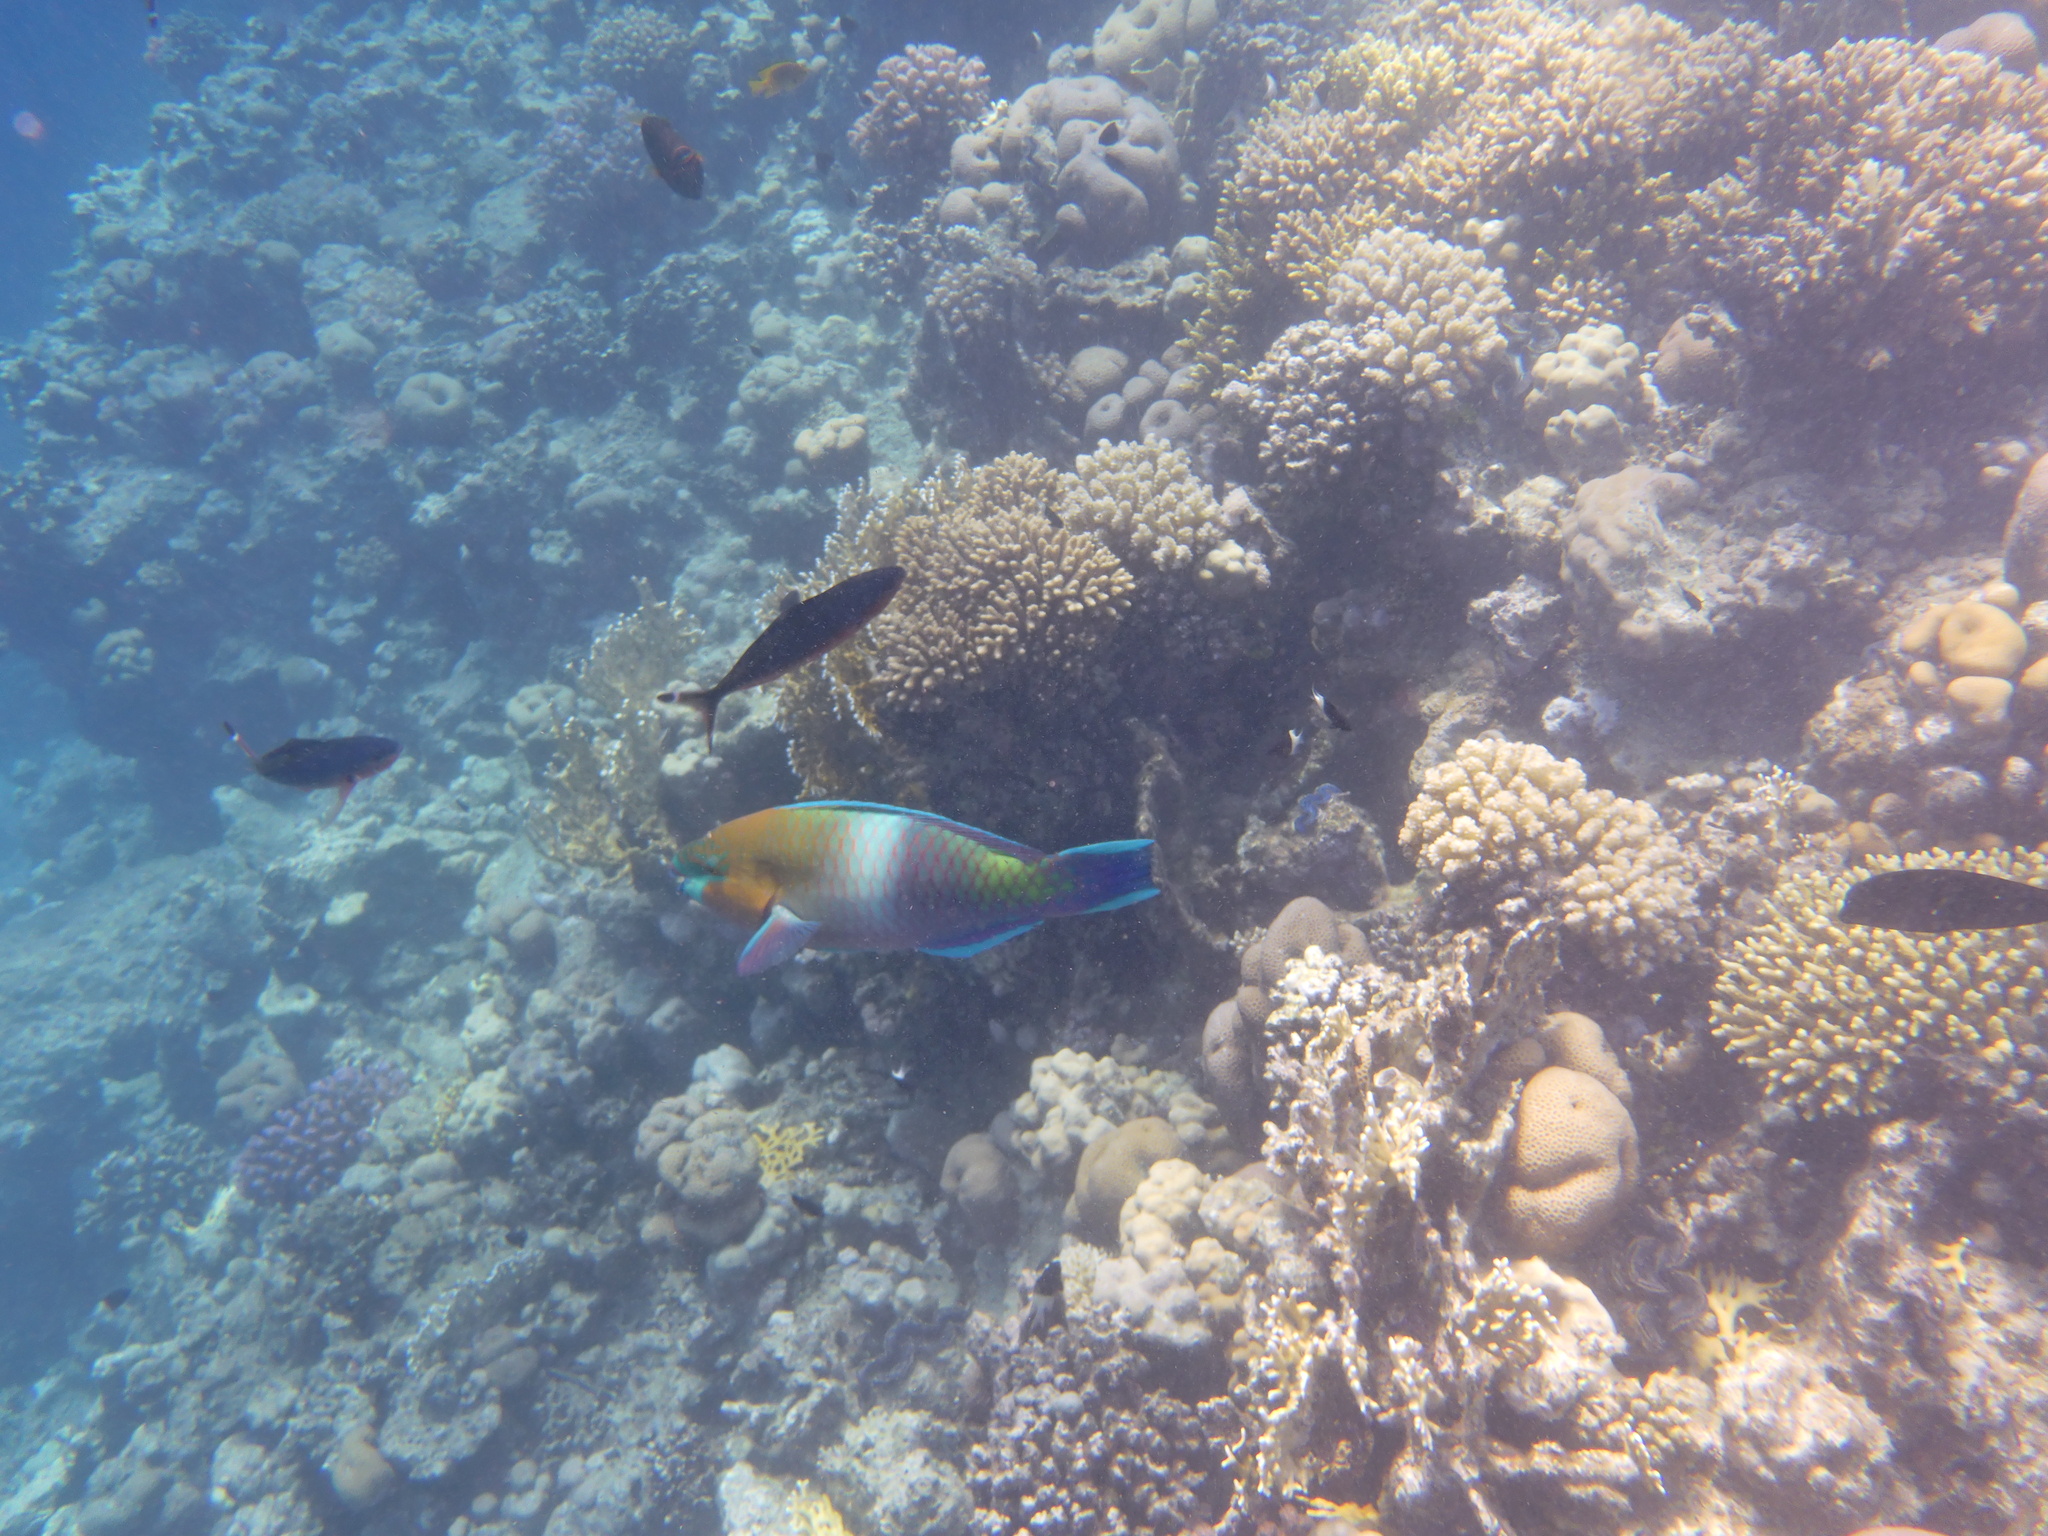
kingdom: Animalia
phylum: Chordata
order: Perciformes
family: Scaridae
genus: Scarus
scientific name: Scarus ferrugineus
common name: Rusty parrotfish
